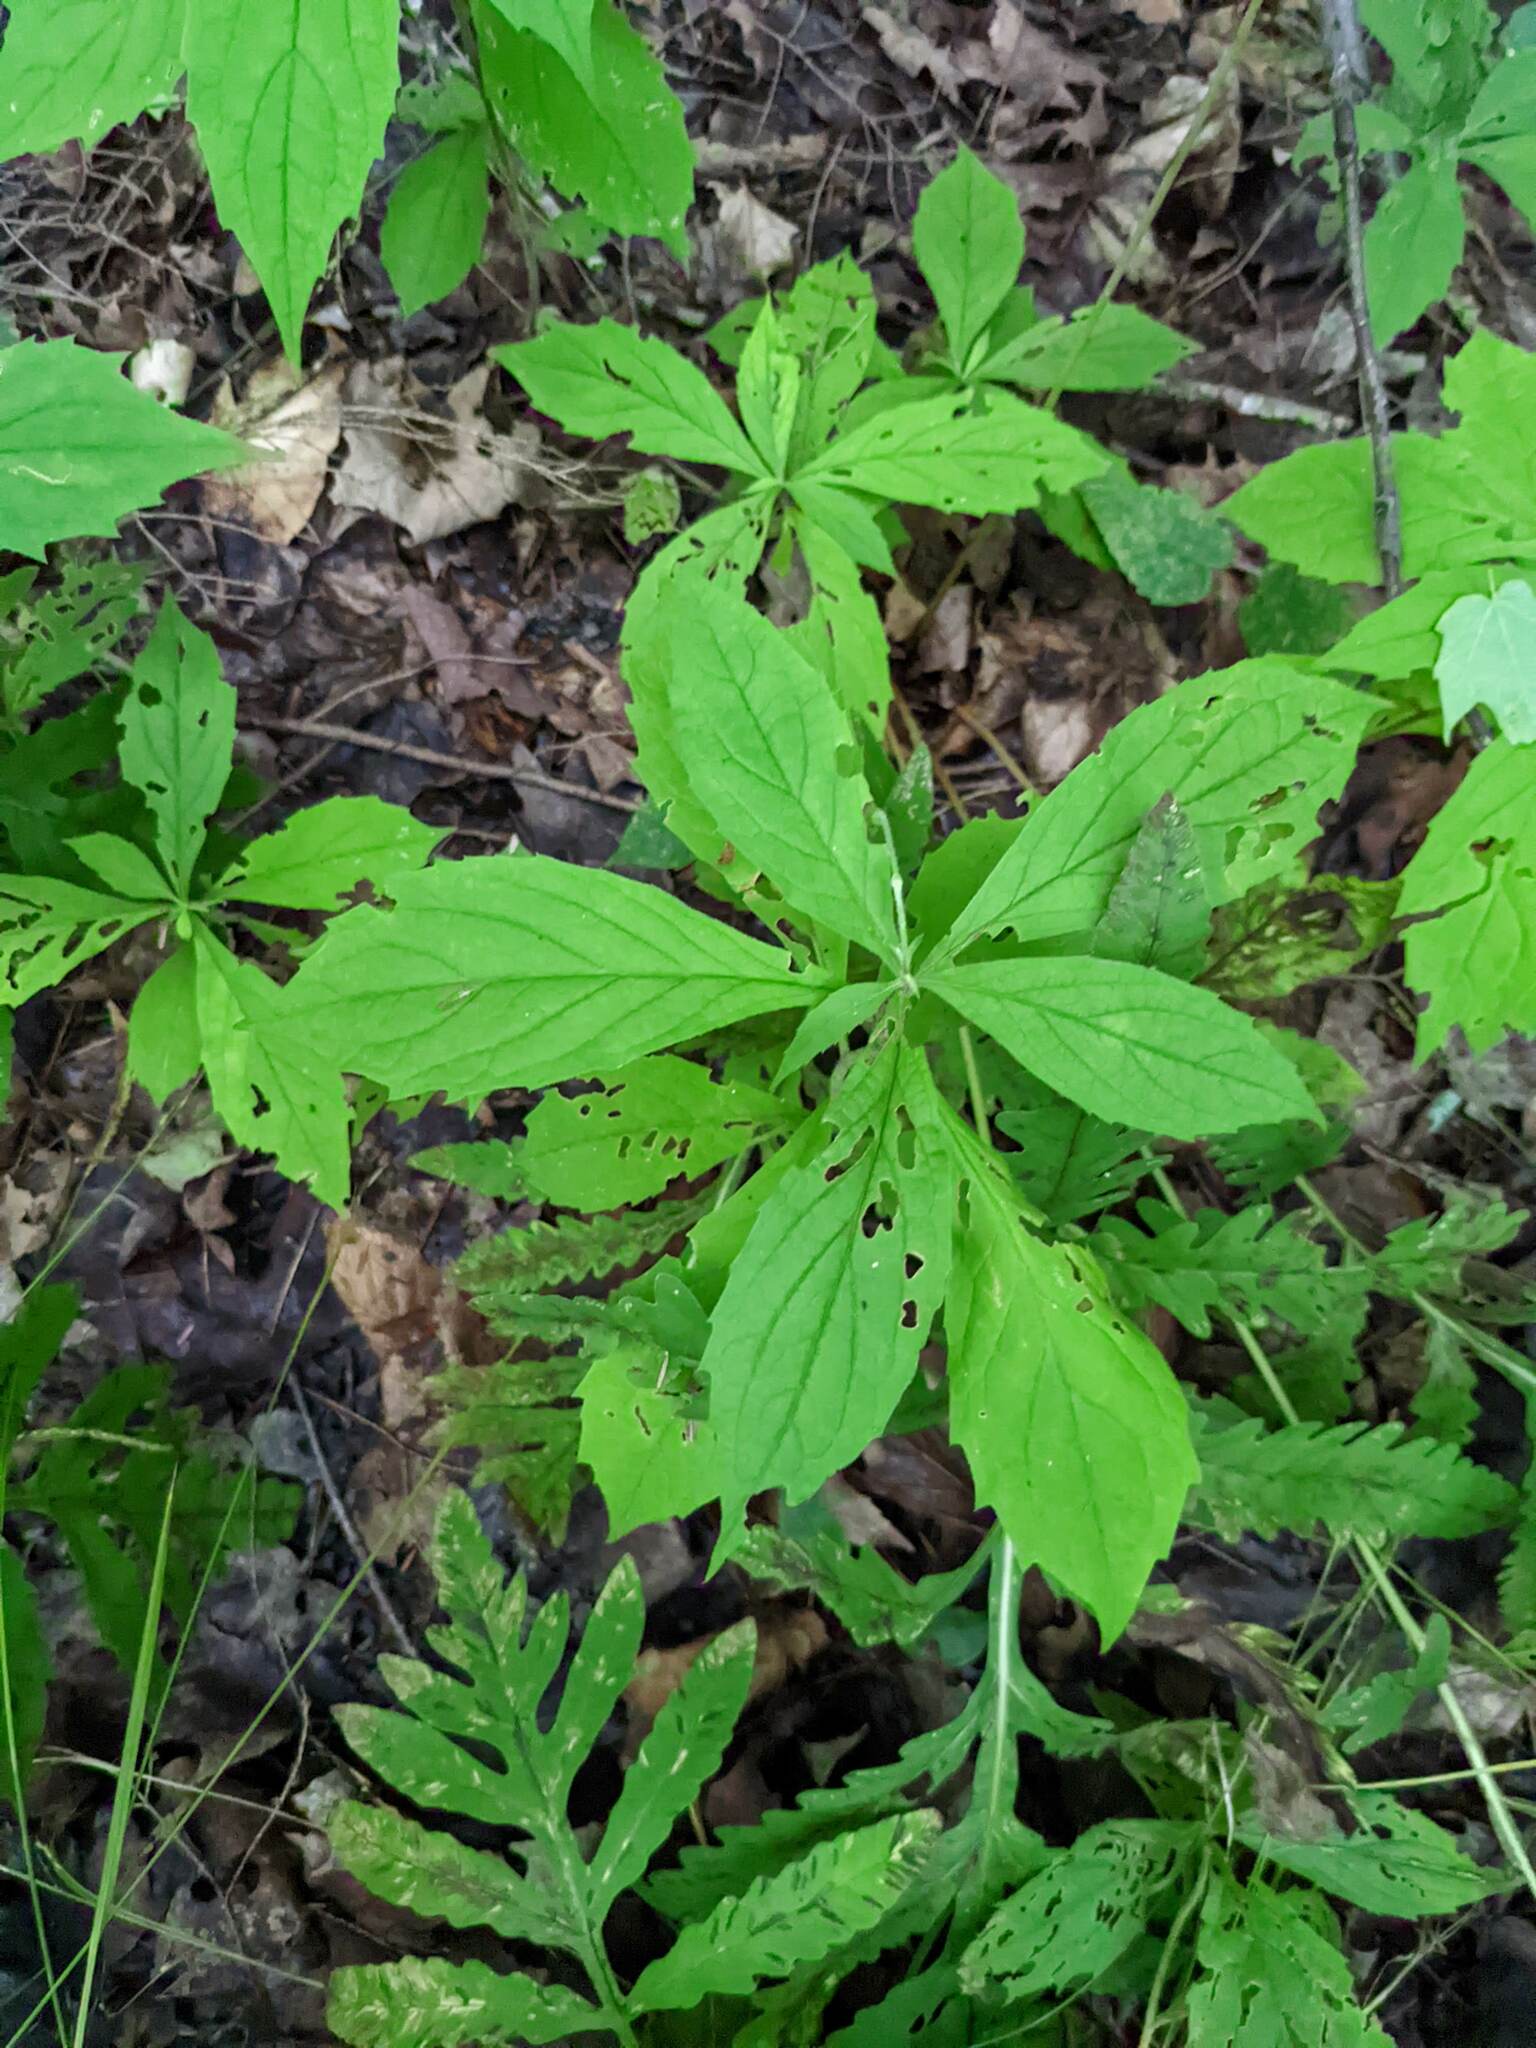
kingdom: Plantae
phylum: Tracheophyta
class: Magnoliopsida
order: Asterales
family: Asteraceae
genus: Oclemena
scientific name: Oclemena acuminata
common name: Mountain aster
